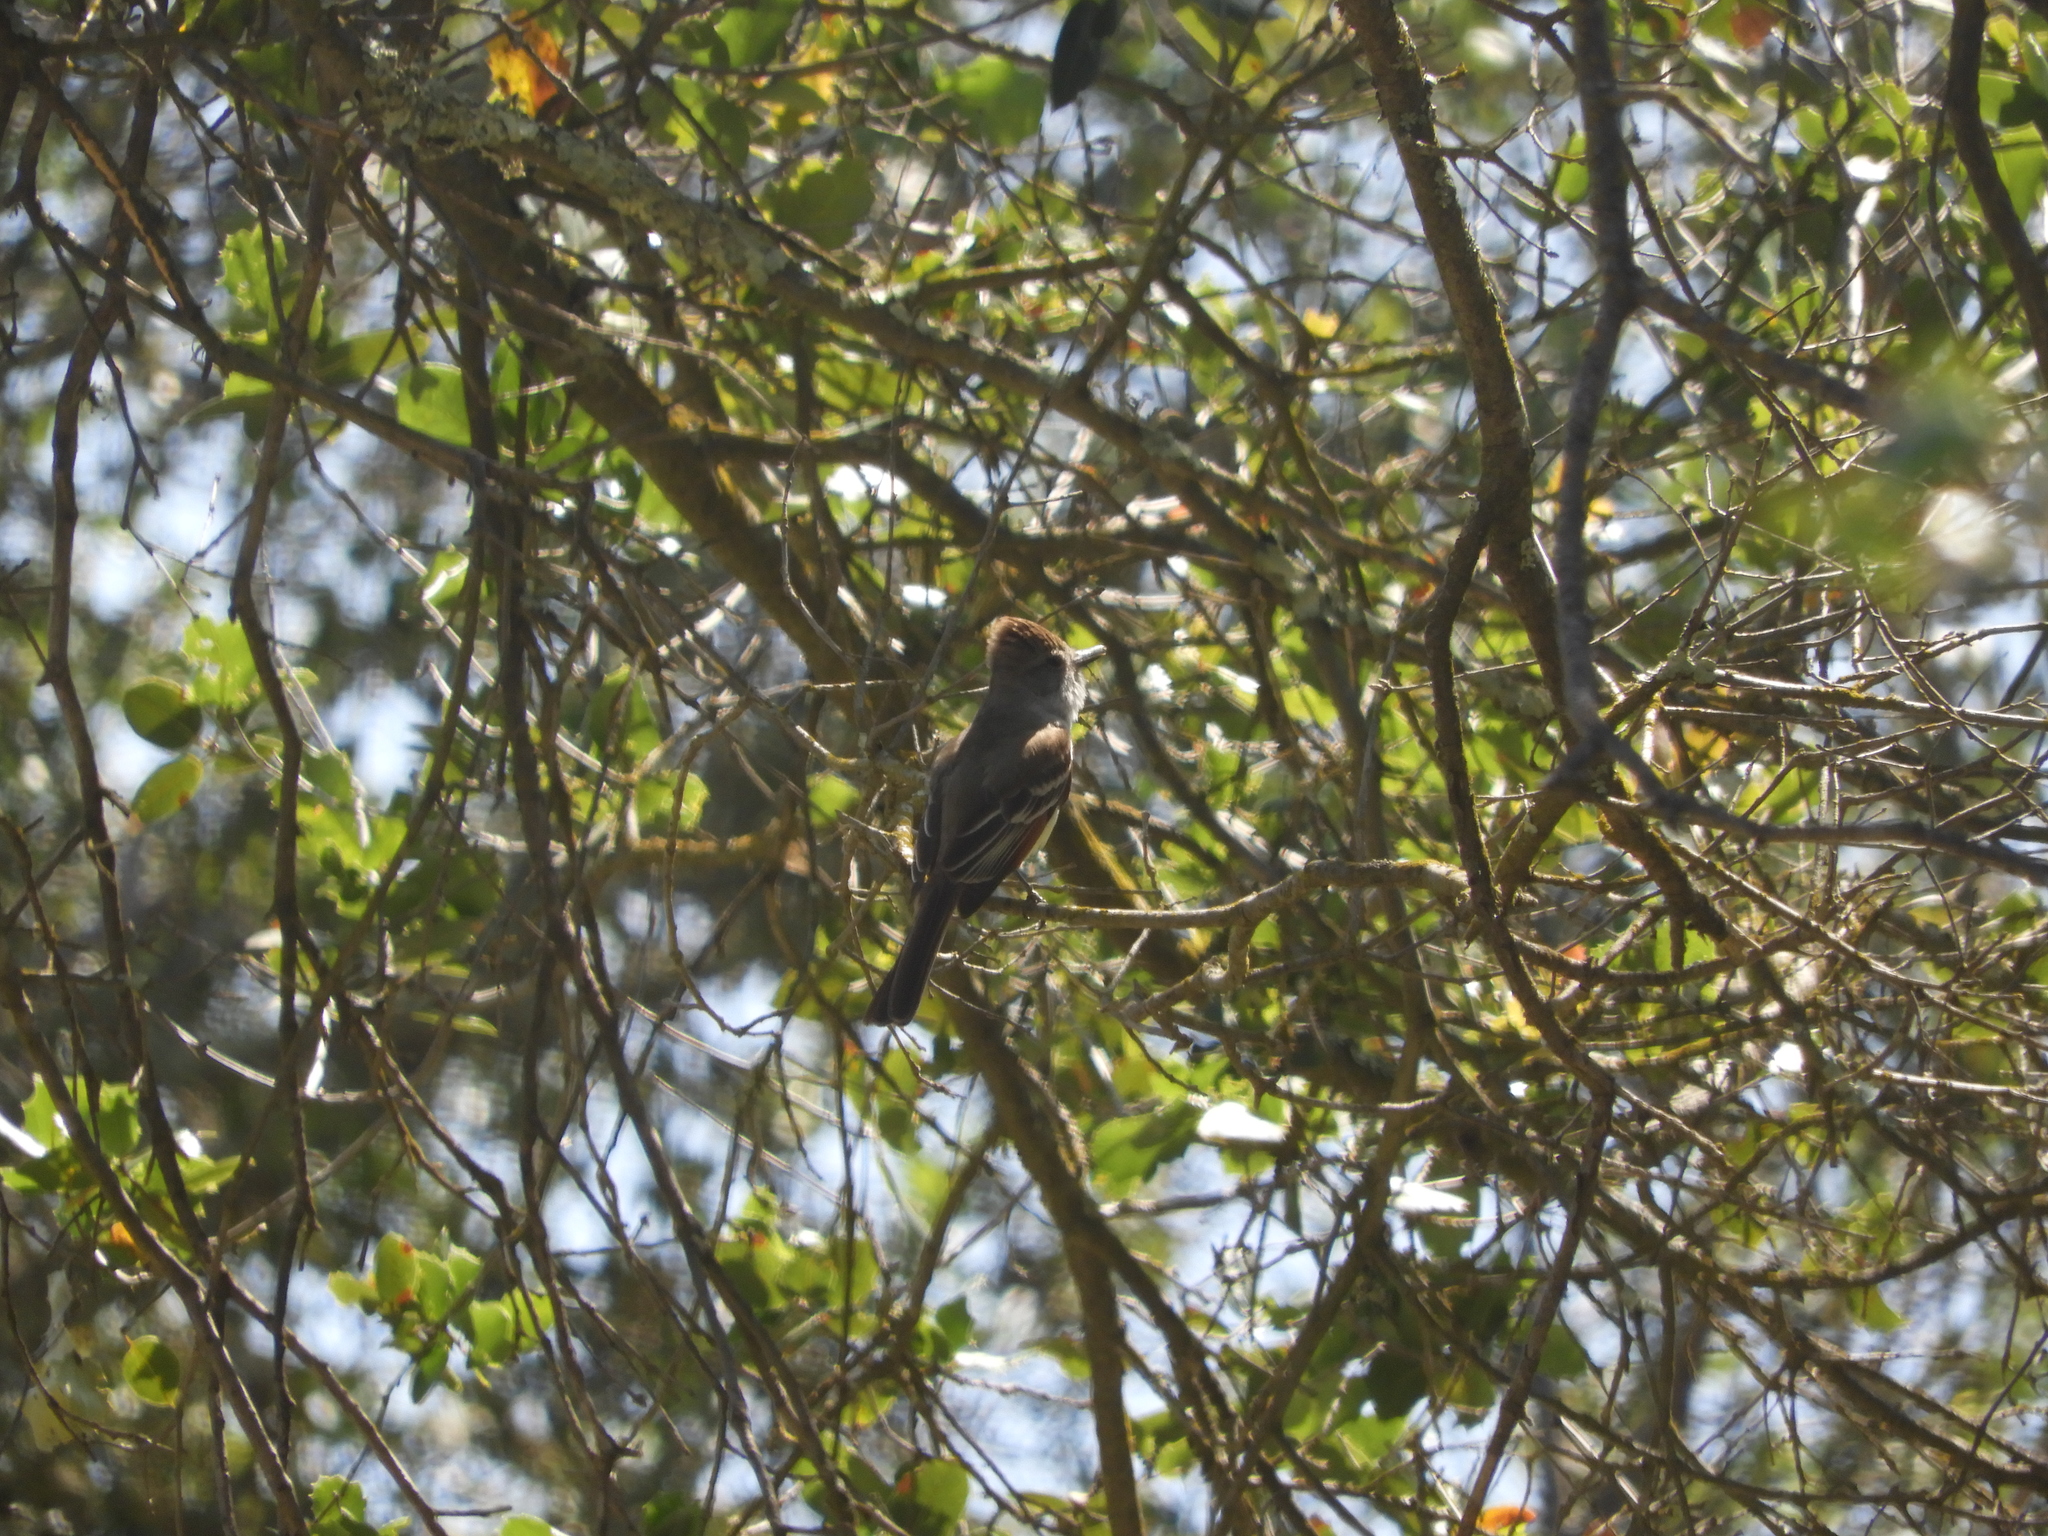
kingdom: Animalia
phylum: Chordata
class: Aves
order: Passeriformes
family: Tyrannidae
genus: Myiarchus
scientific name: Myiarchus cinerascens
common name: Ash-throated flycatcher
